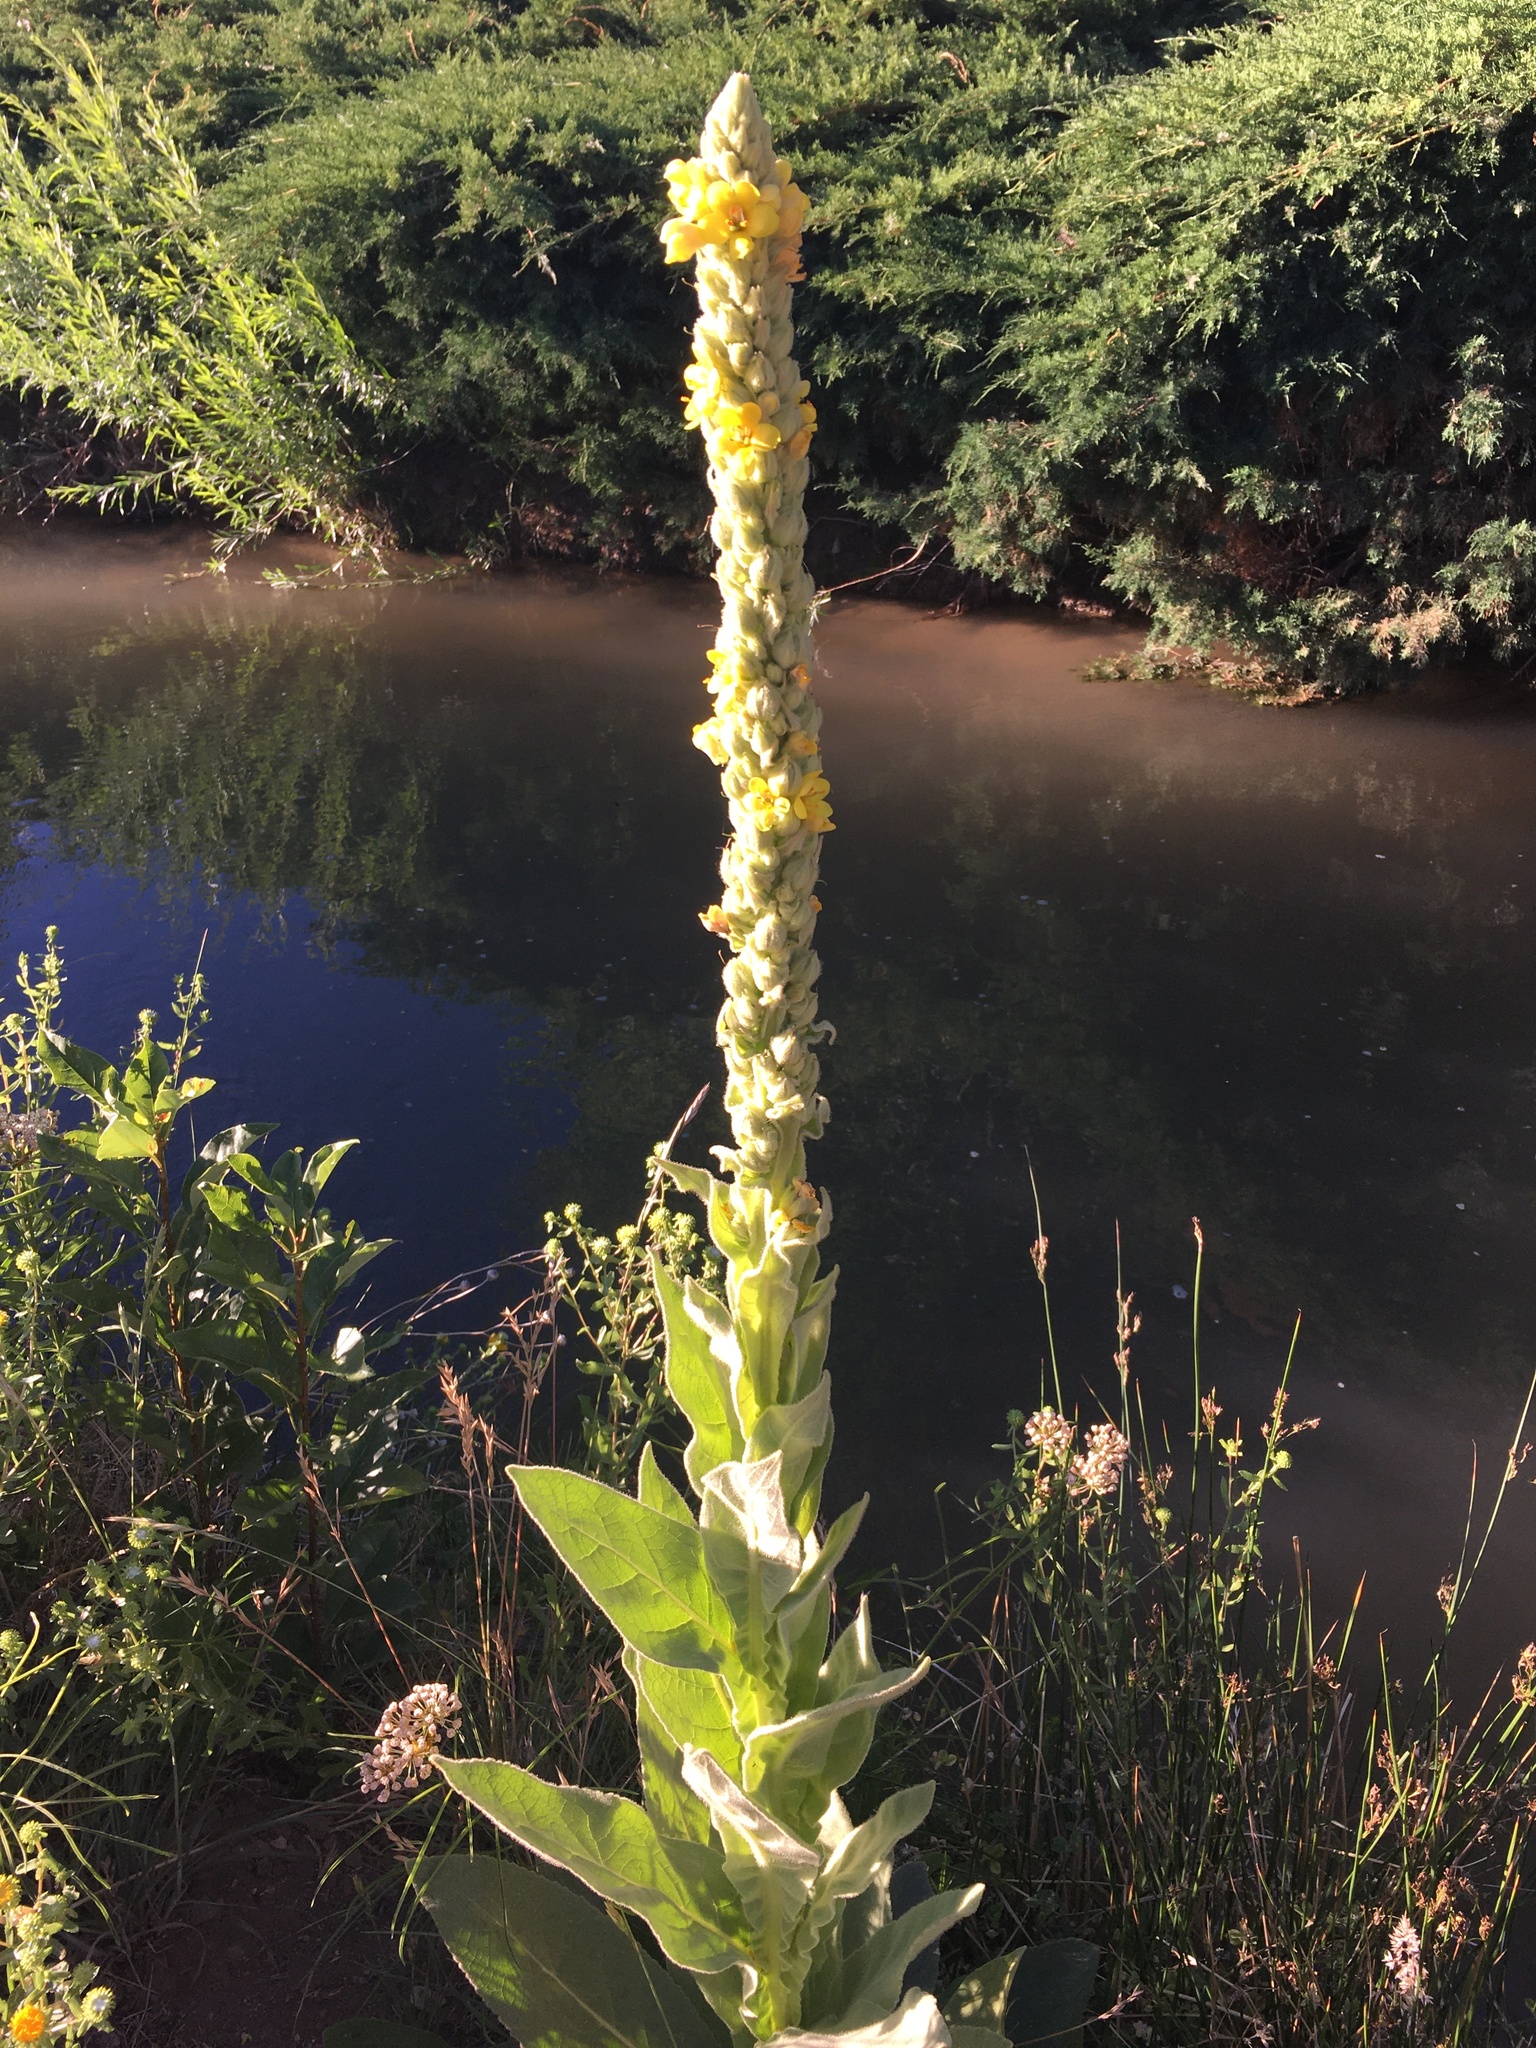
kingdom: Plantae
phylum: Tracheophyta
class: Magnoliopsida
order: Lamiales
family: Scrophulariaceae
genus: Verbascum
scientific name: Verbascum thapsus
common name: Common mullein
